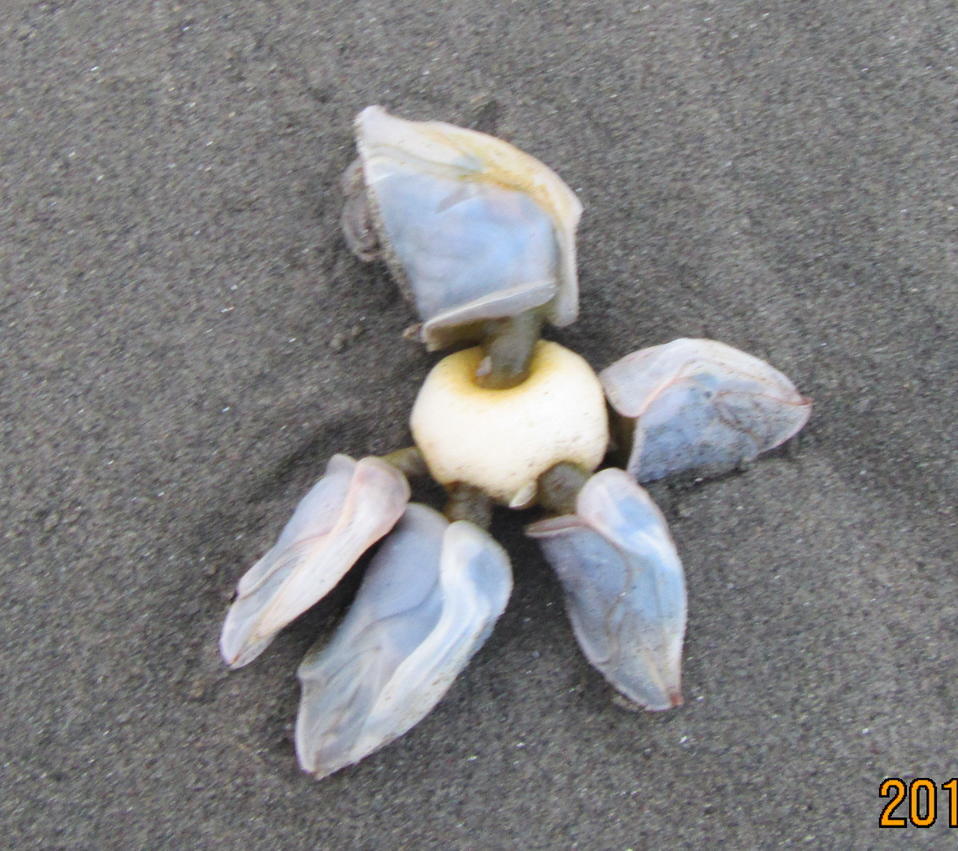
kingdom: Animalia
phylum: Arthropoda
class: Maxillopoda
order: Pedunculata
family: Lepadidae
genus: Dosima
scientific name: Dosima fascicularis
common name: Buoy barnacle
